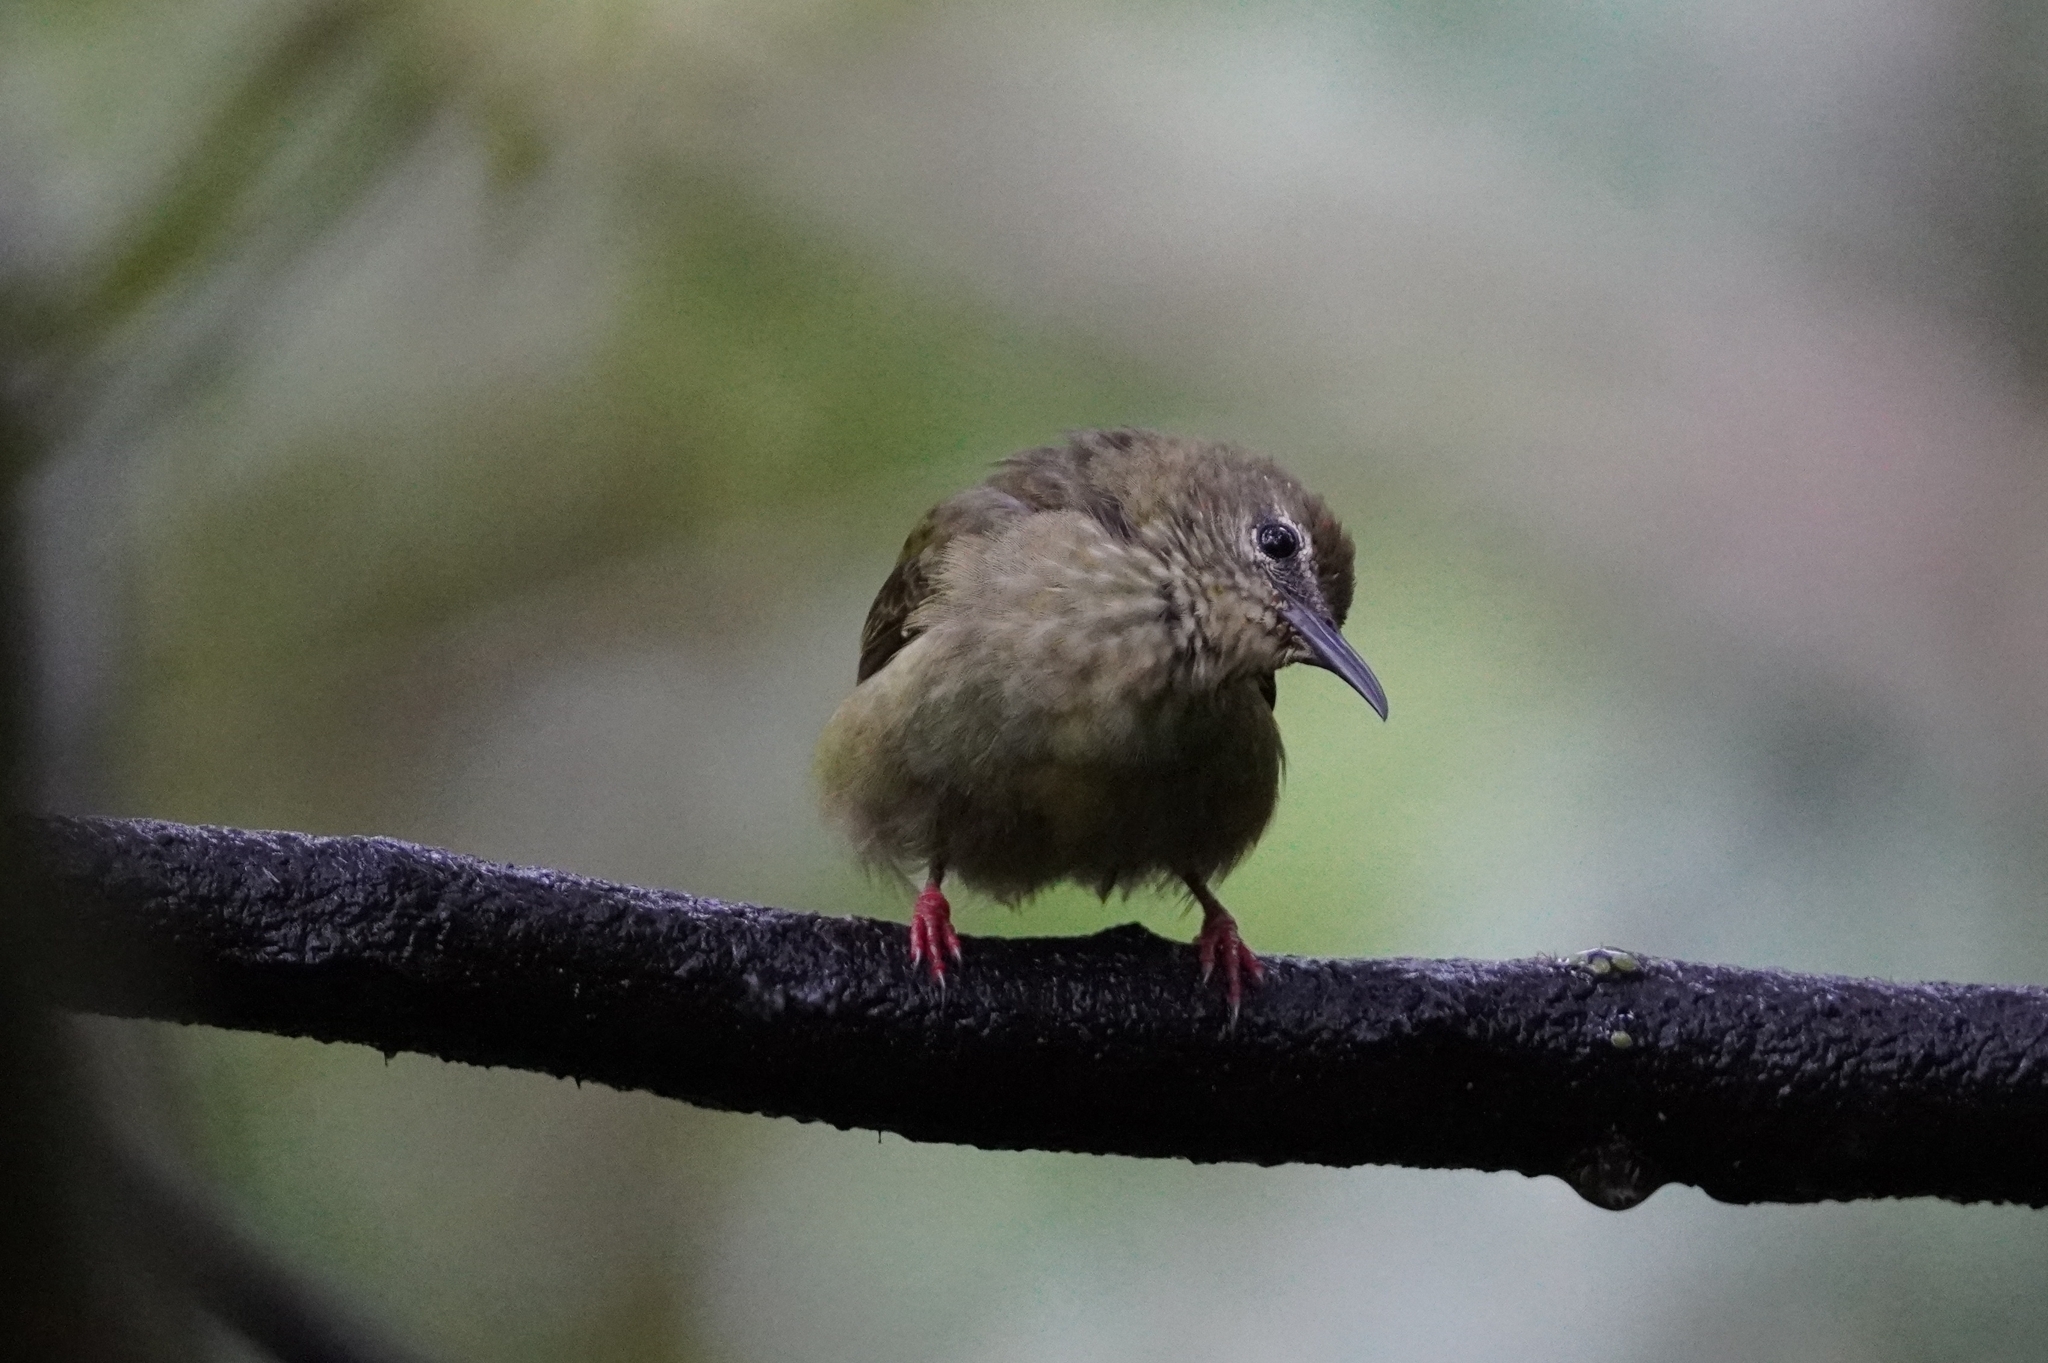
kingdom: Animalia
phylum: Chordata
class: Aves
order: Passeriformes
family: Thraupidae
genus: Cyanerpes
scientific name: Cyanerpes cyaneus
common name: Red-legged honeycreeper
